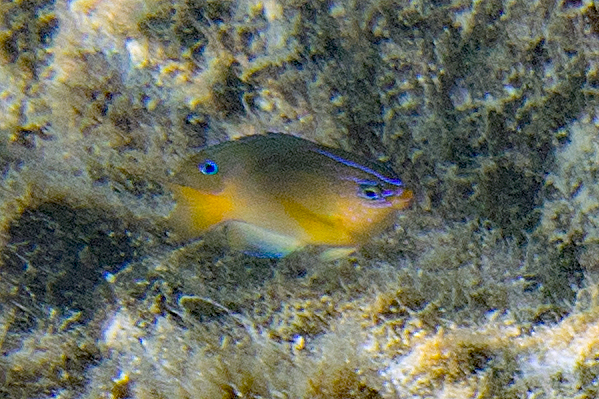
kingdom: Animalia
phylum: Chordata
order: Perciformes
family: Pomacentridae
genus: Pomacentrus
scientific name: Pomacentrus wardi
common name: Ward's damsel
